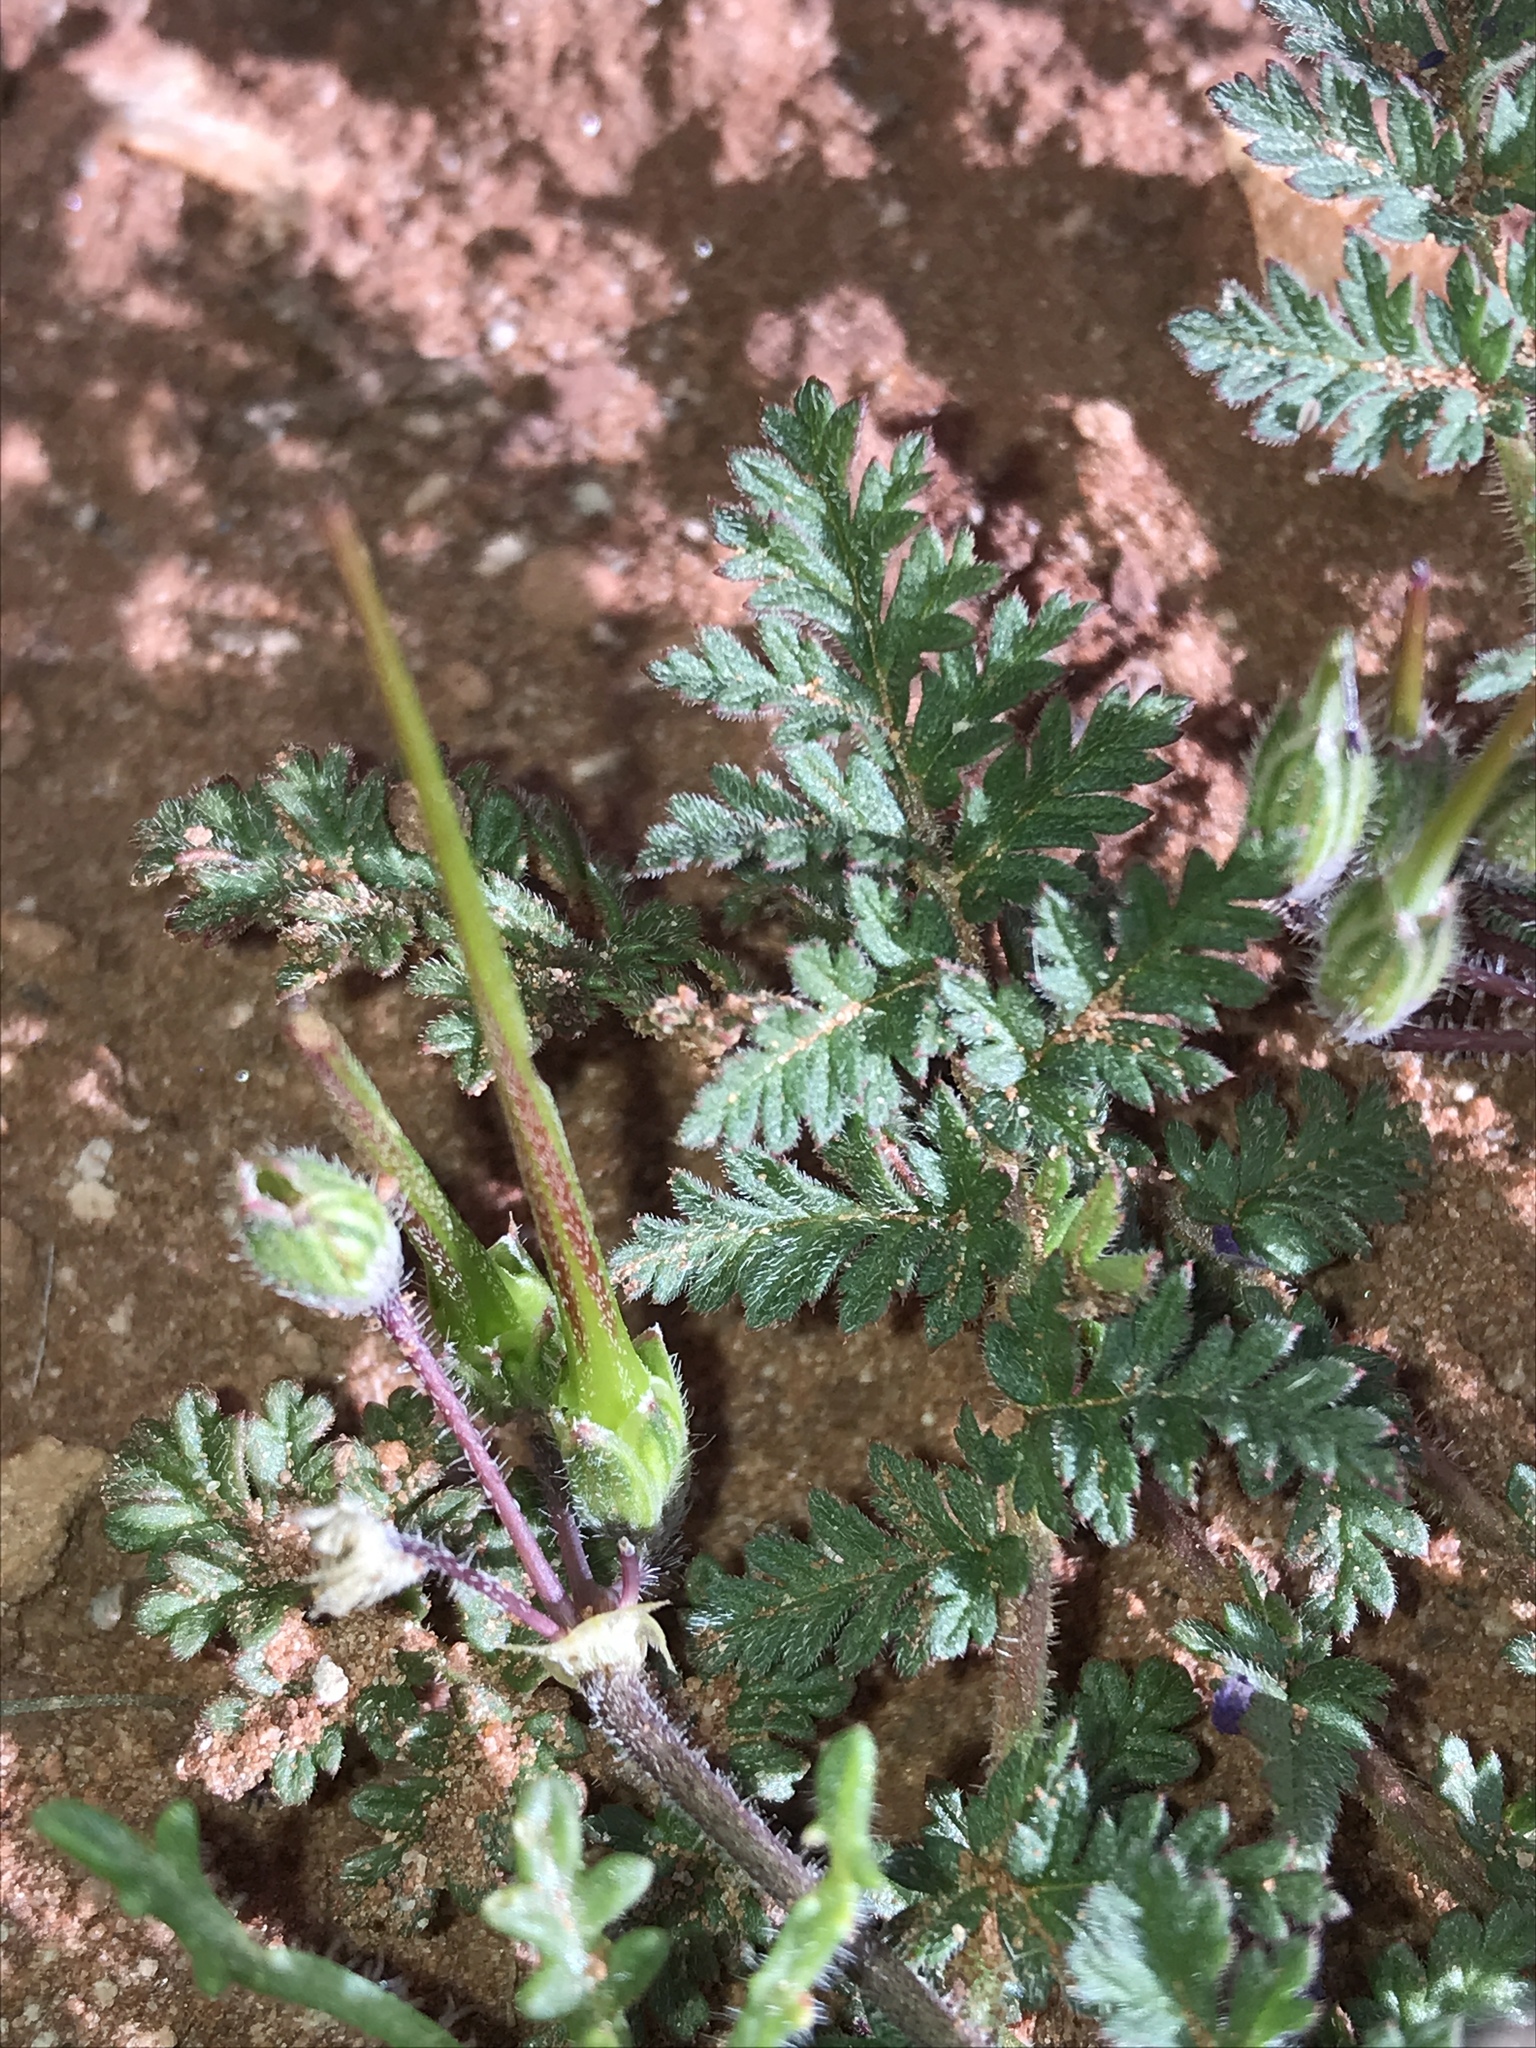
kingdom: Plantae
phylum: Tracheophyta
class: Magnoliopsida
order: Geraniales
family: Geraniaceae
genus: Erodium
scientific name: Erodium cicutarium
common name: Common stork's-bill
